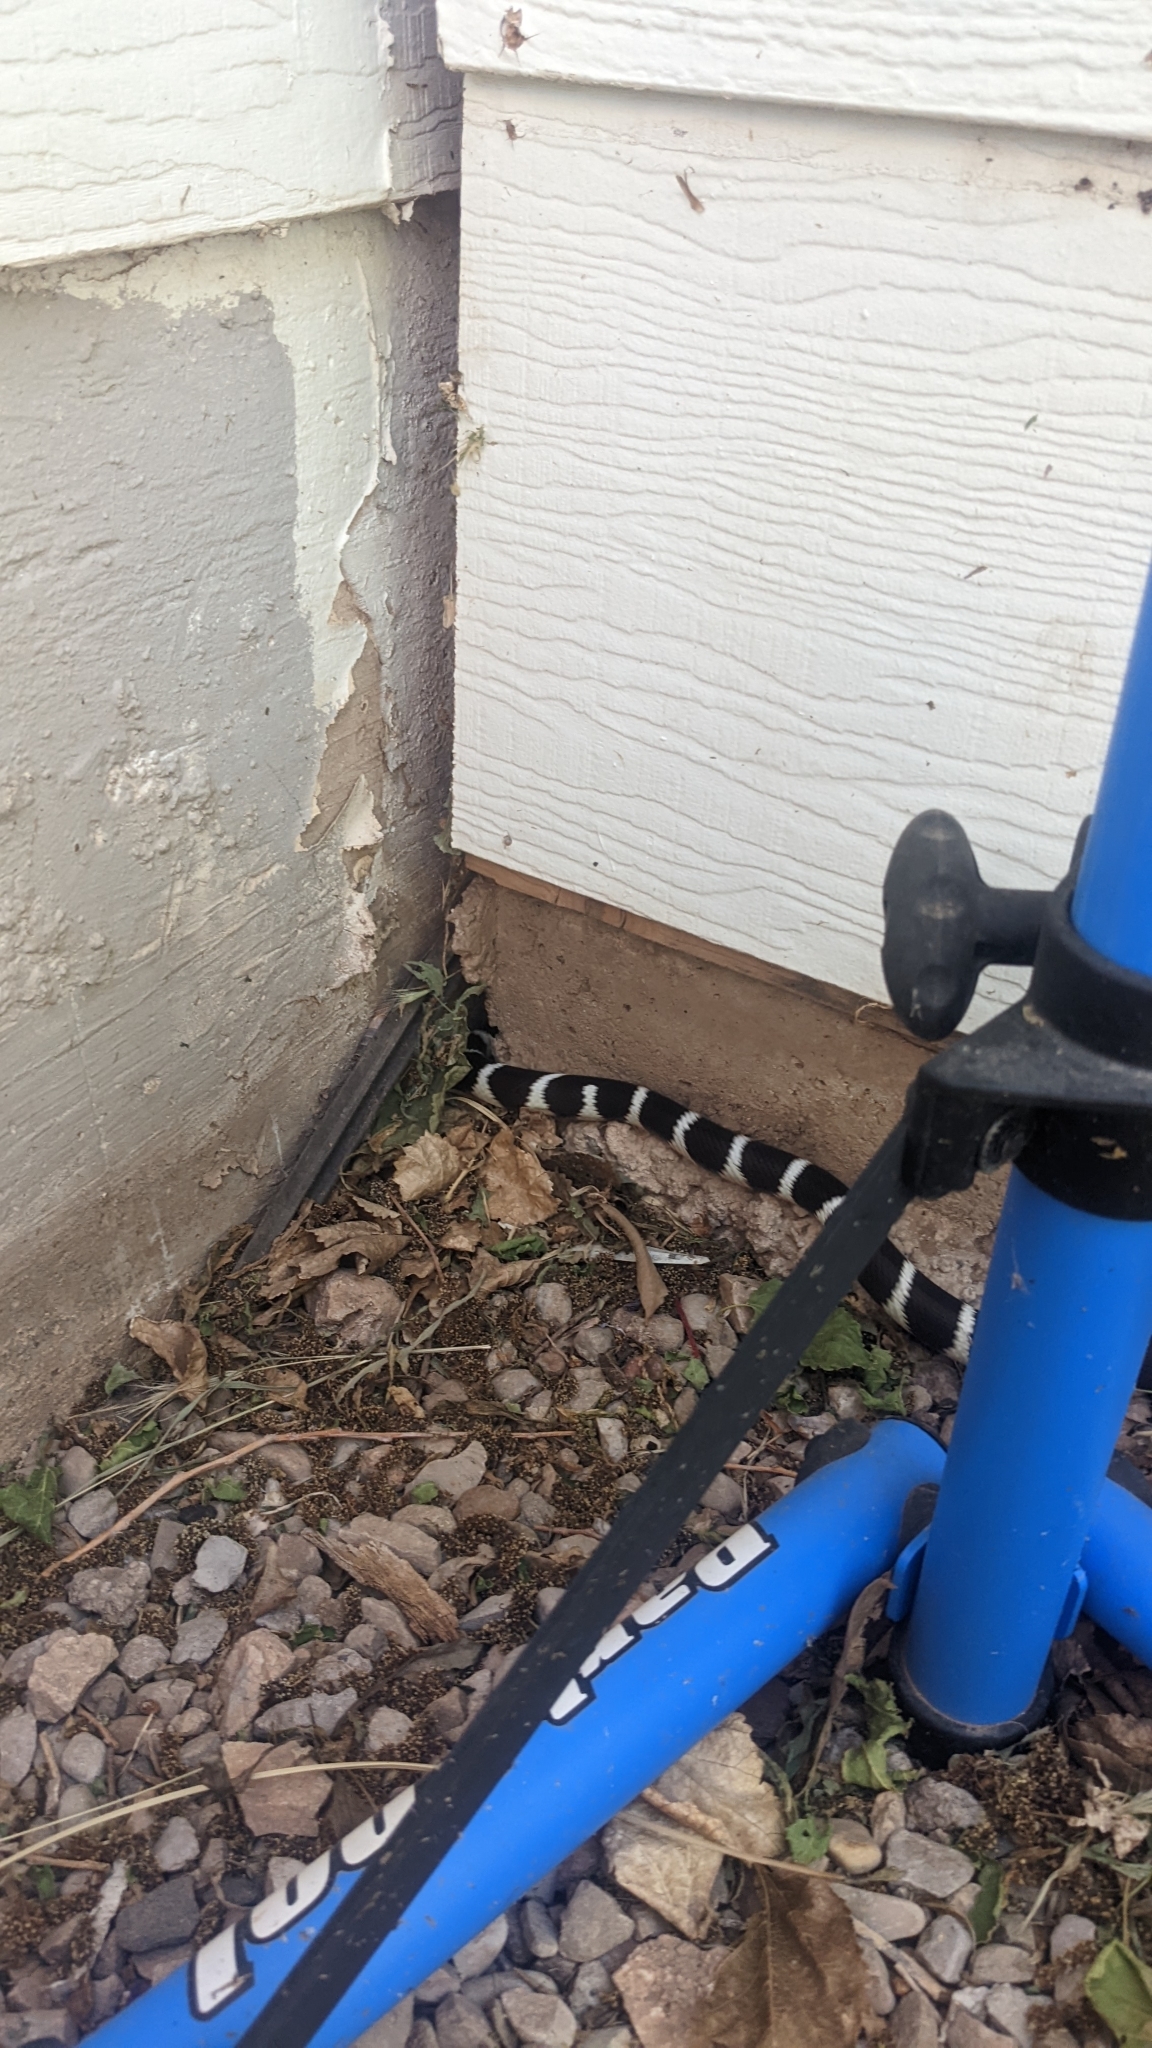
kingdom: Animalia
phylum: Chordata
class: Squamata
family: Colubridae
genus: Lampropeltis
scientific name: Lampropeltis californiae
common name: California kingsnake
